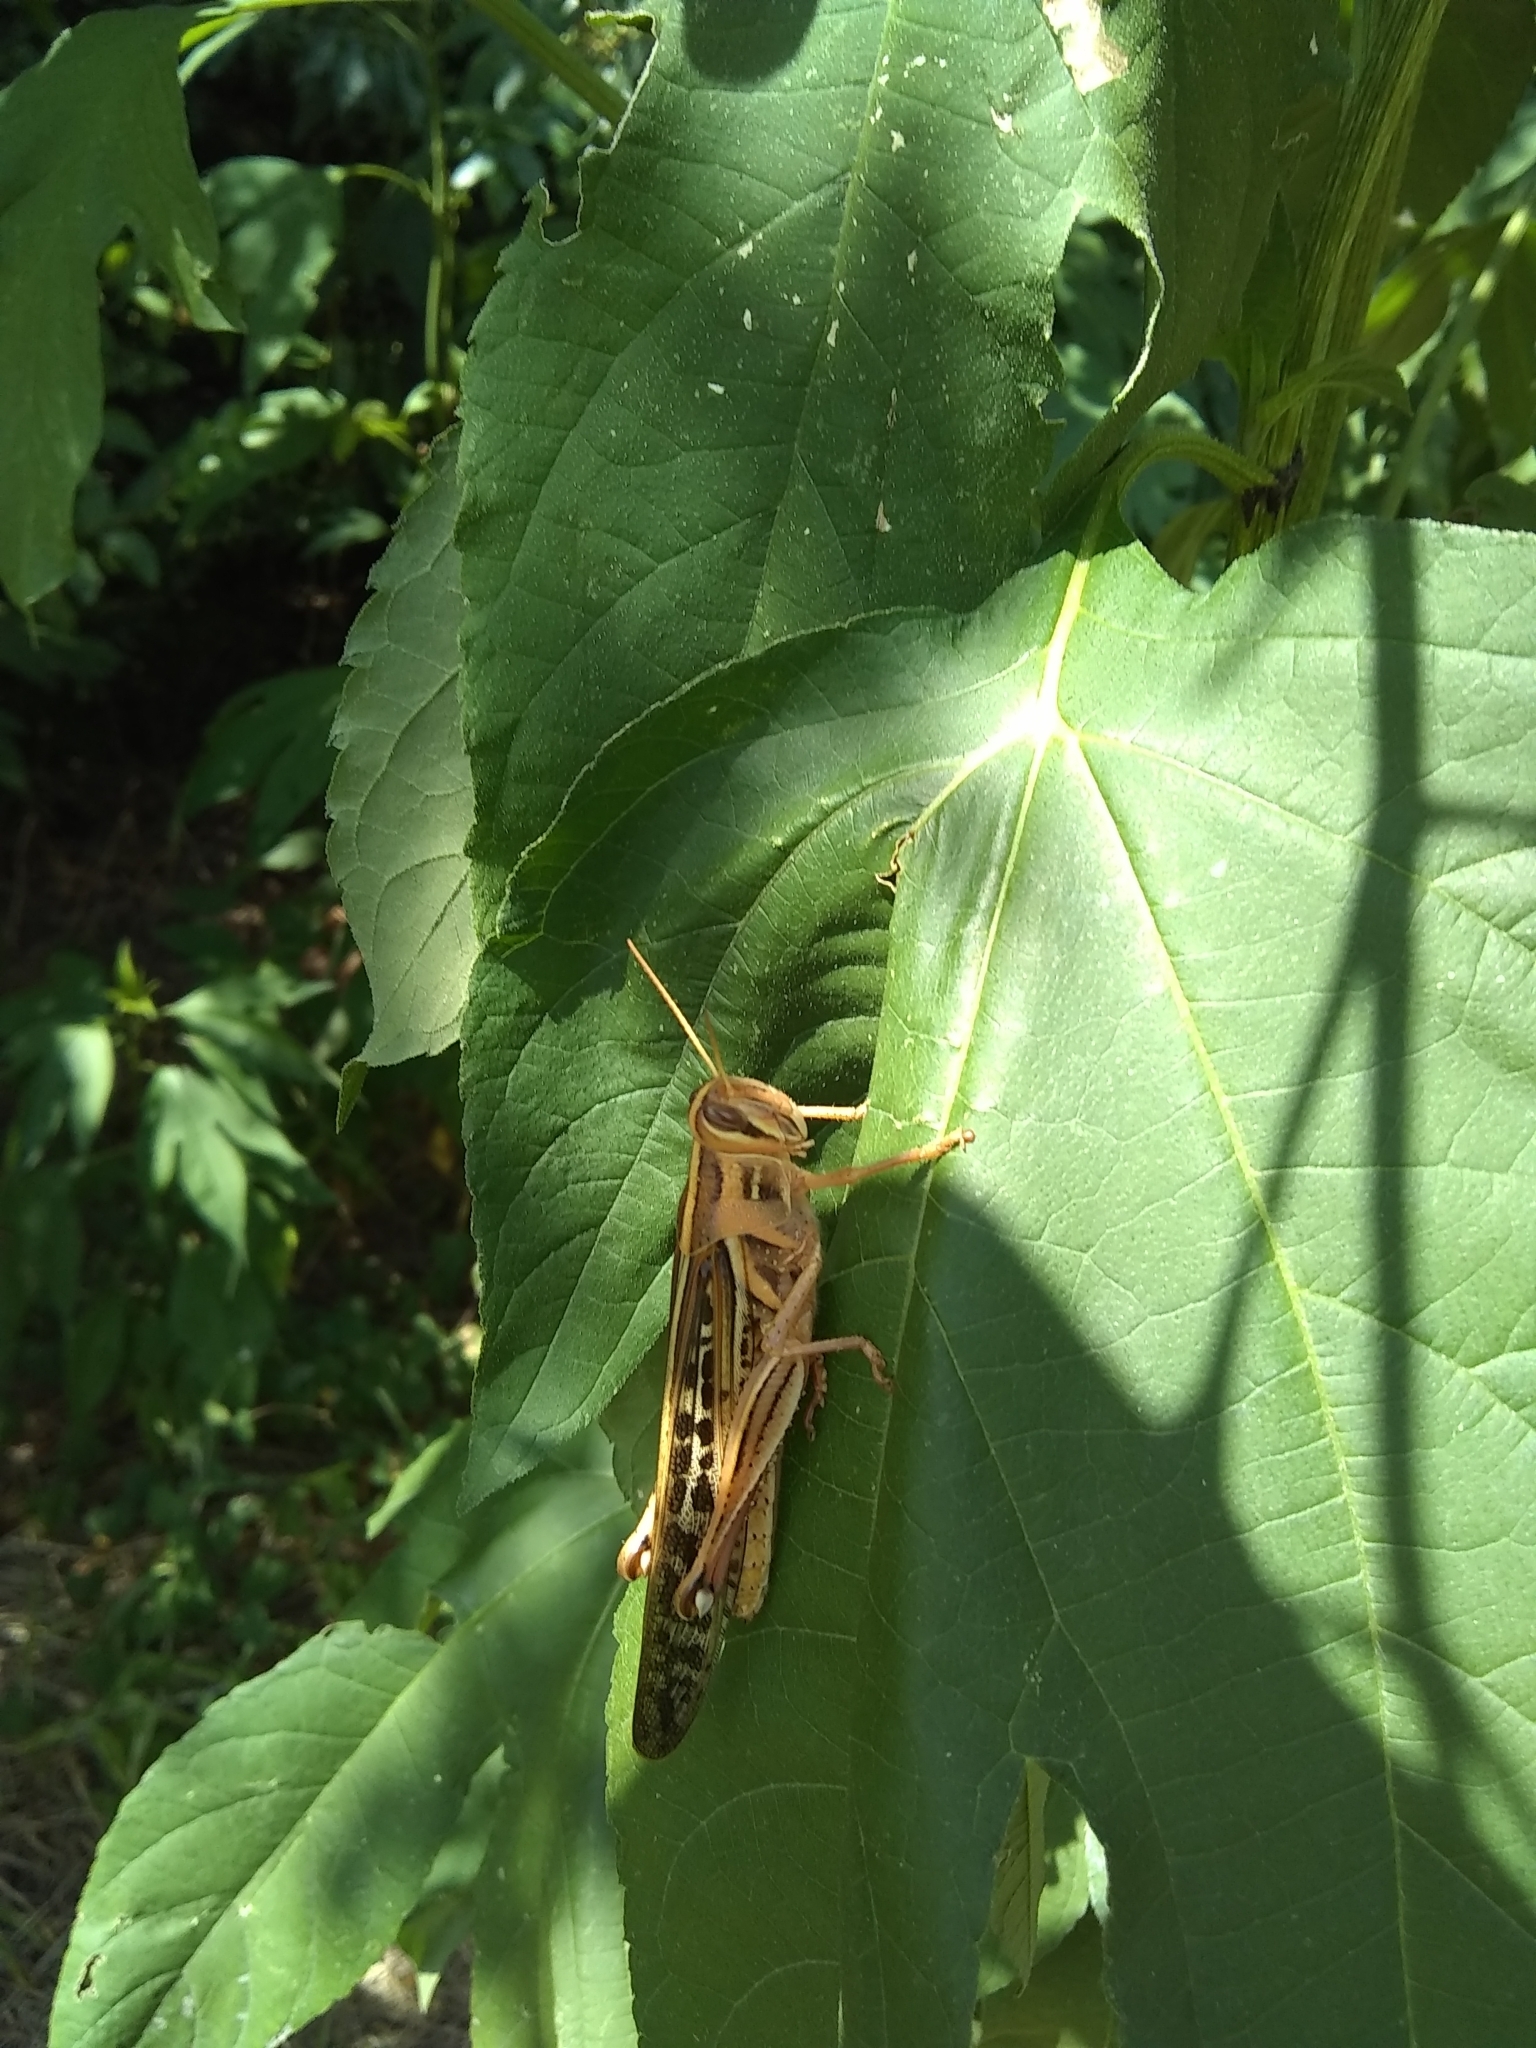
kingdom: Animalia
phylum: Arthropoda
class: Insecta
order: Orthoptera
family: Acrididae
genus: Schistocerca
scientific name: Schistocerca americana
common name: American bird locust
